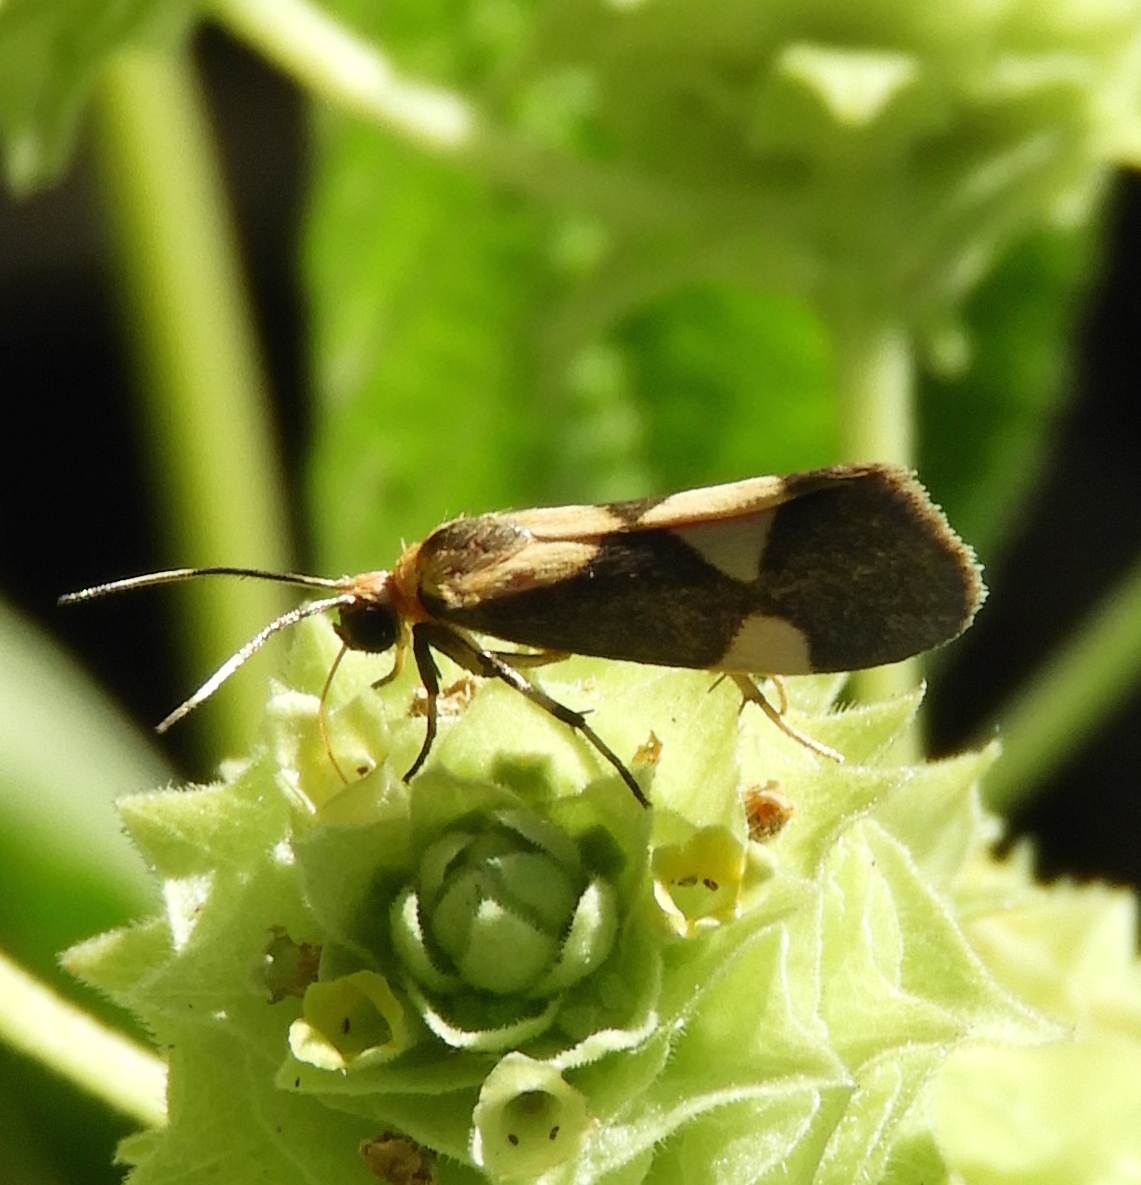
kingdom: Animalia
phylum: Arthropoda
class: Insecta
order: Lepidoptera
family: Erebidae
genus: Cisthene
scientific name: Cisthene polyzona
